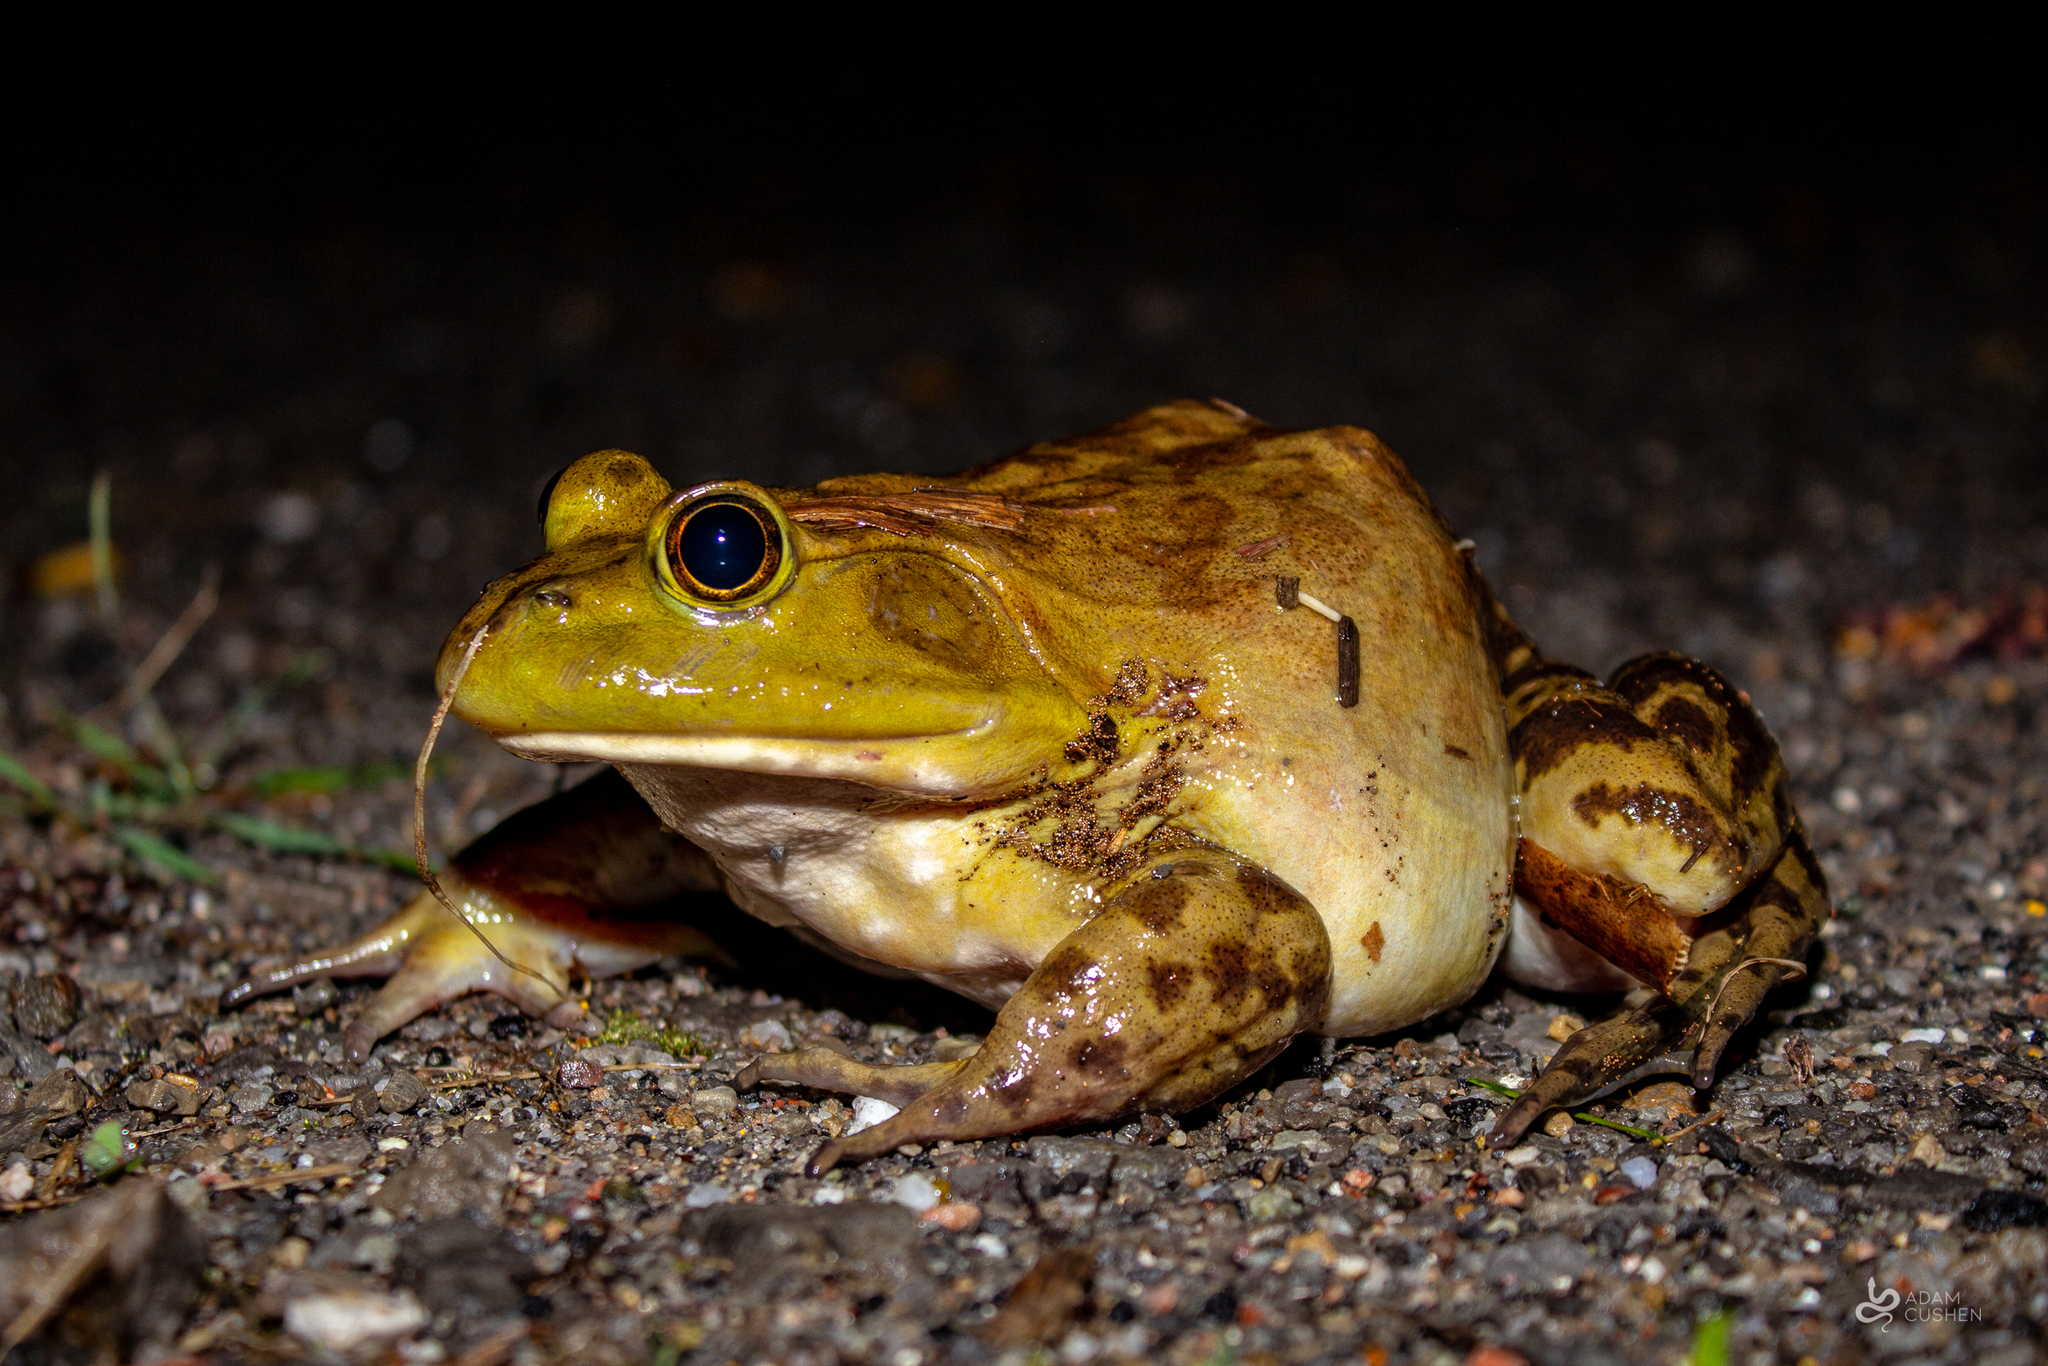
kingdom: Animalia
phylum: Chordata
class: Amphibia
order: Anura
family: Ranidae
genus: Lithobates
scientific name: Lithobates catesbeianus
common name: American bullfrog
